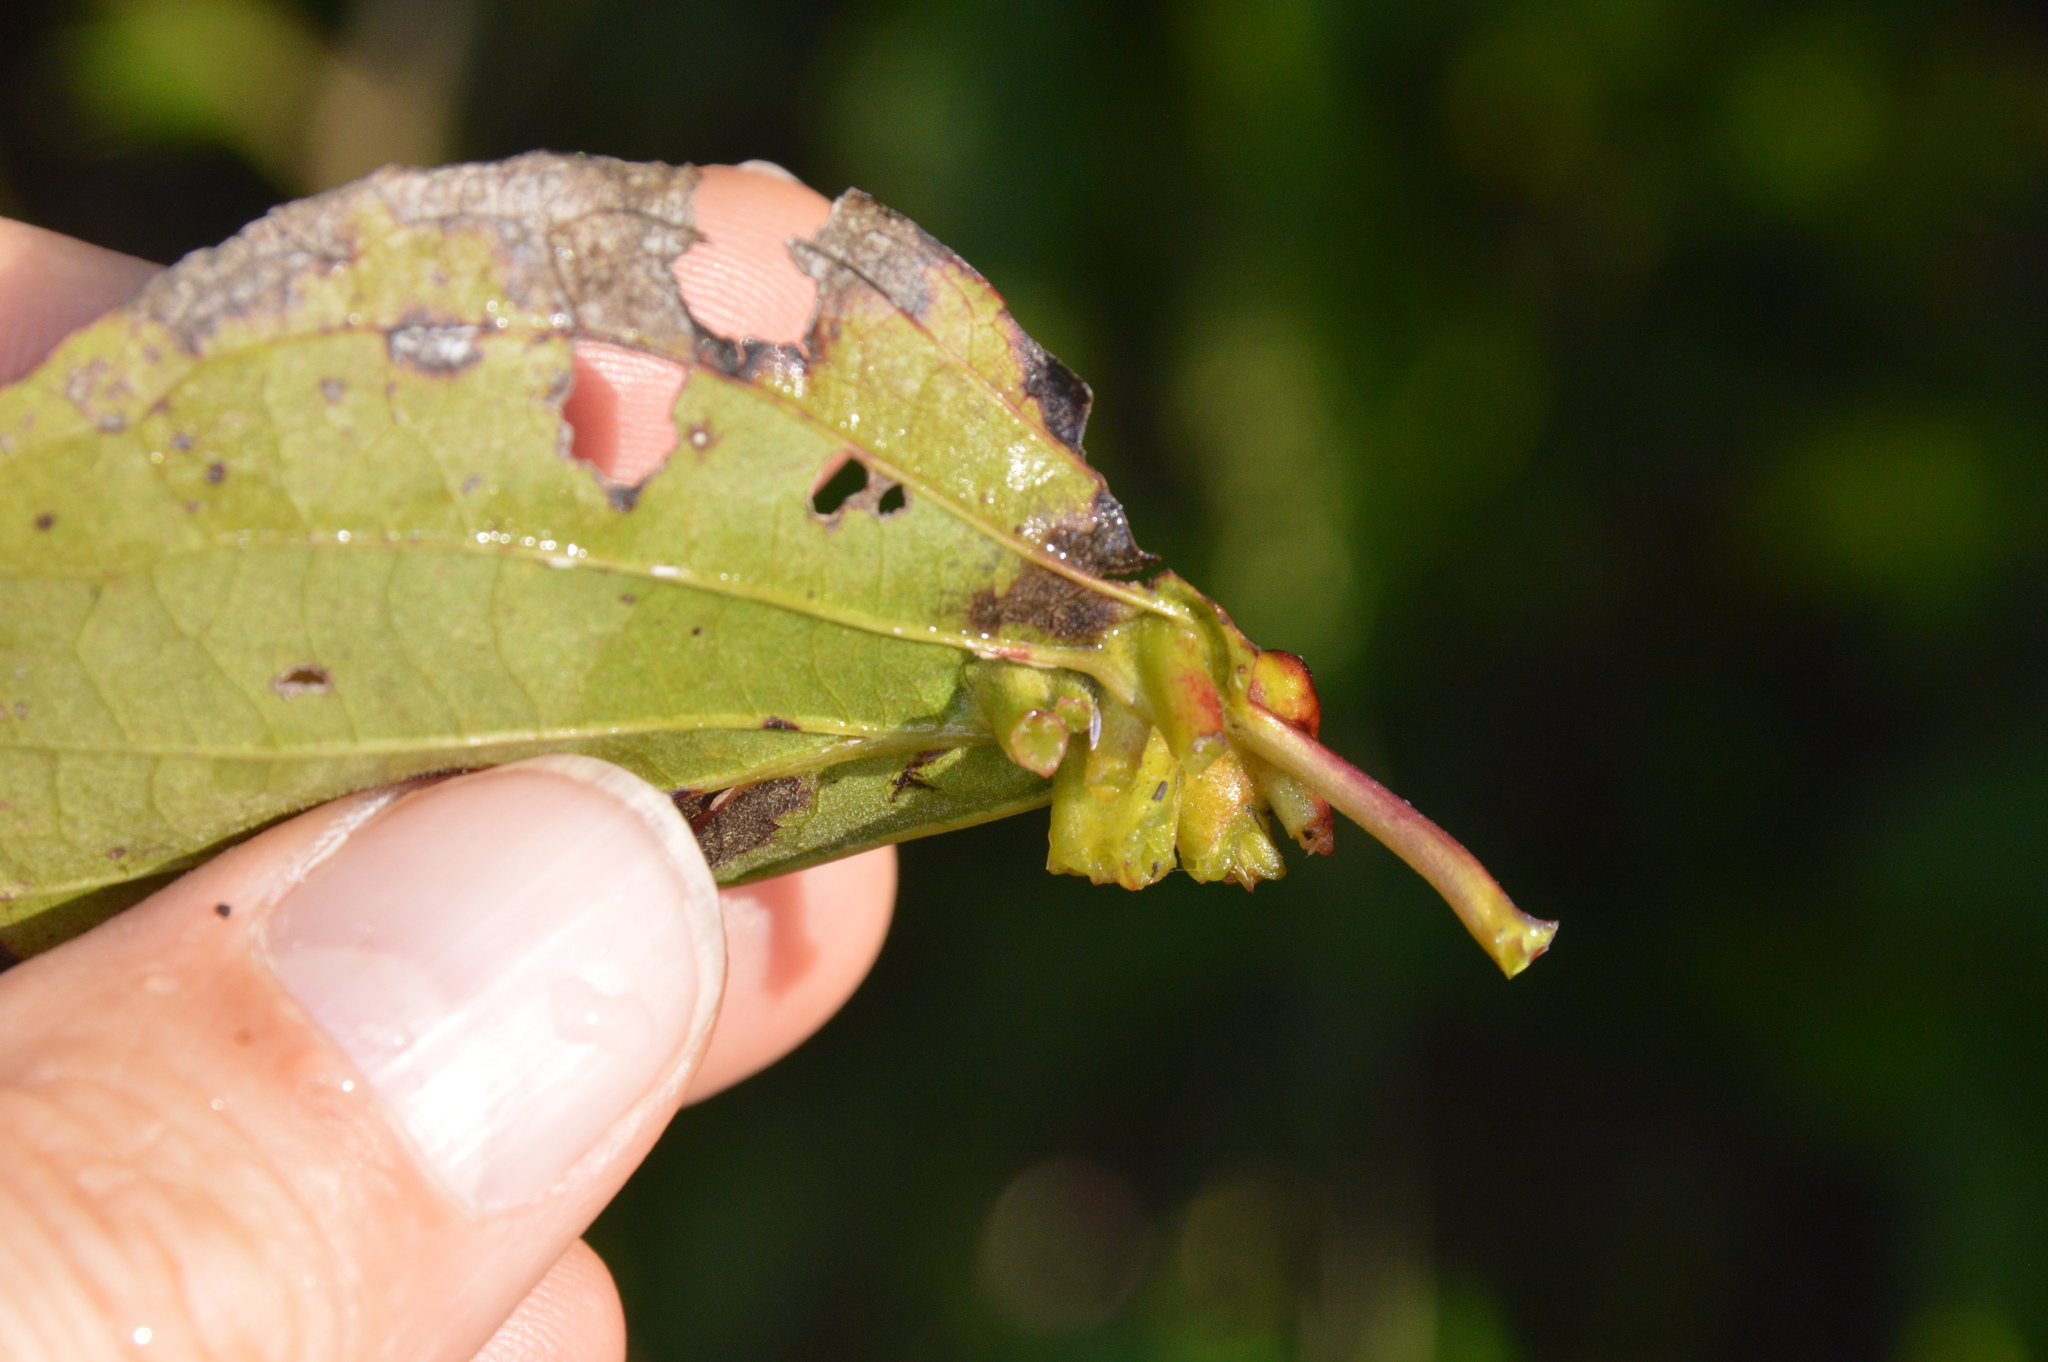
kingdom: Animalia
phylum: Arthropoda
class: Insecta
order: Diptera
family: Cecidomyiidae
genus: Dasineura
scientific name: Dasineura tuba
